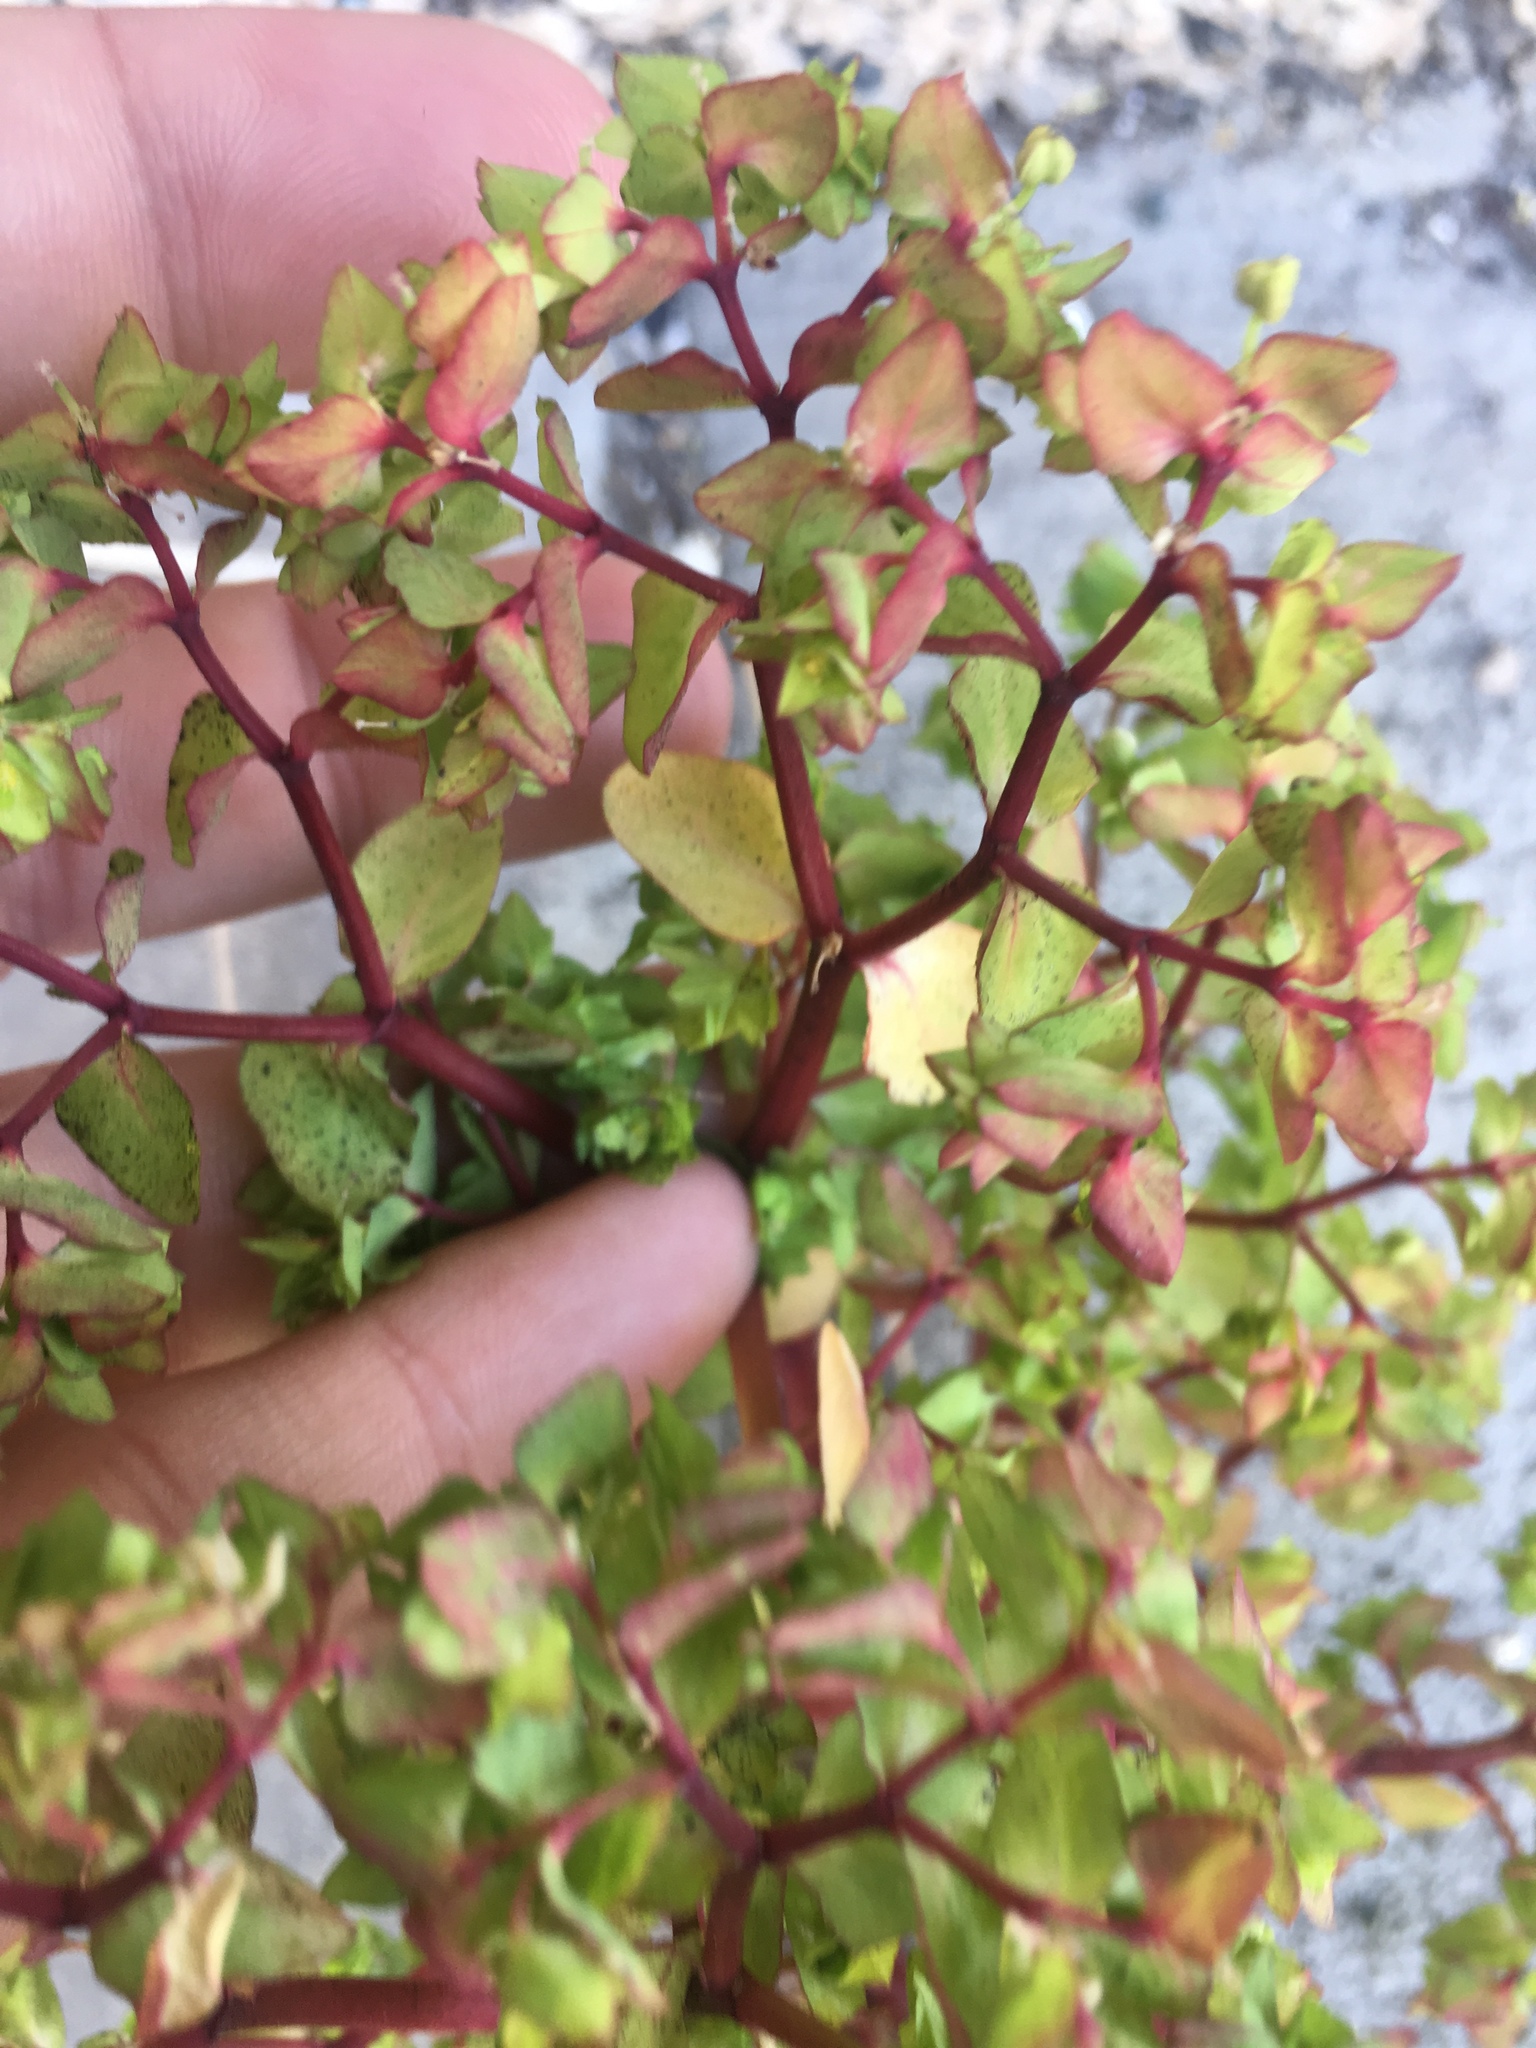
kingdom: Plantae
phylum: Tracheophyta
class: Magnoliopsida
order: Malpighiales
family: Euphorbiaceae
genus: Euphorbia
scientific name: Euphorbia peplus
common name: Petty spurge
